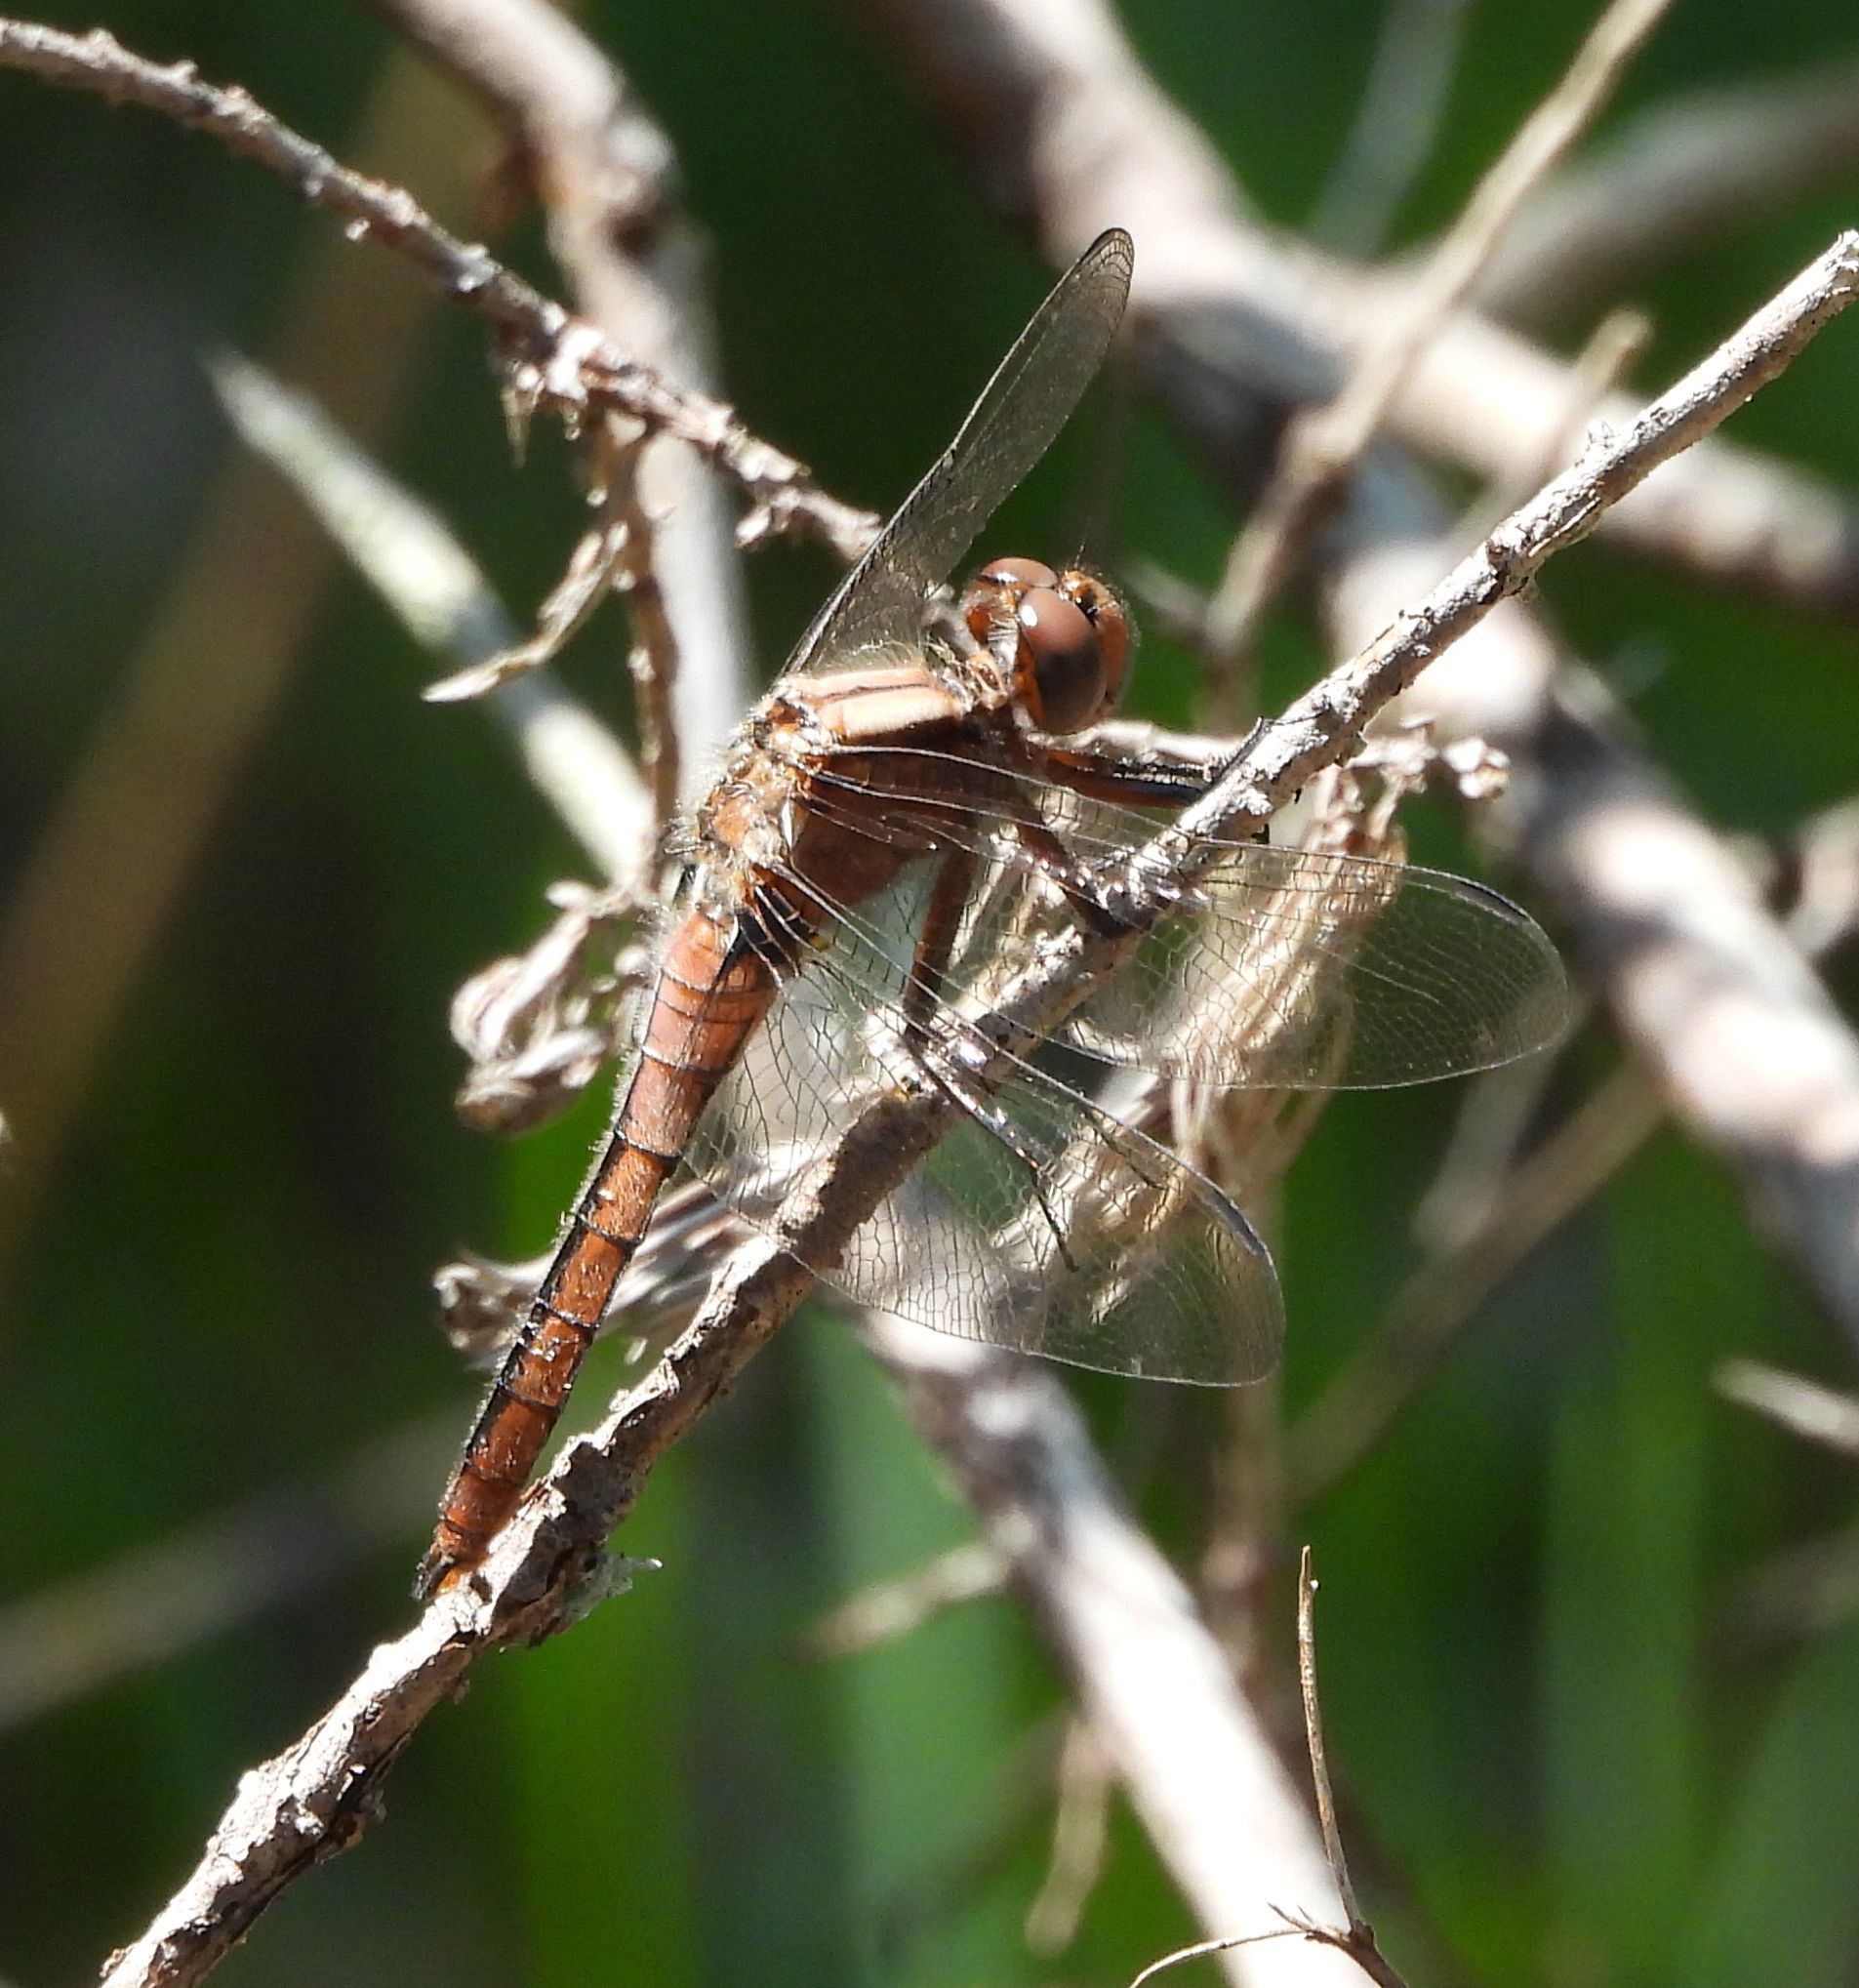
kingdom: Animalia
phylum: Arthropoda
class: Insecta
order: Odonata
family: Libellulidae
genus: Ladona
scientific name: Ladona julia
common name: Chalk-fronted corporal
